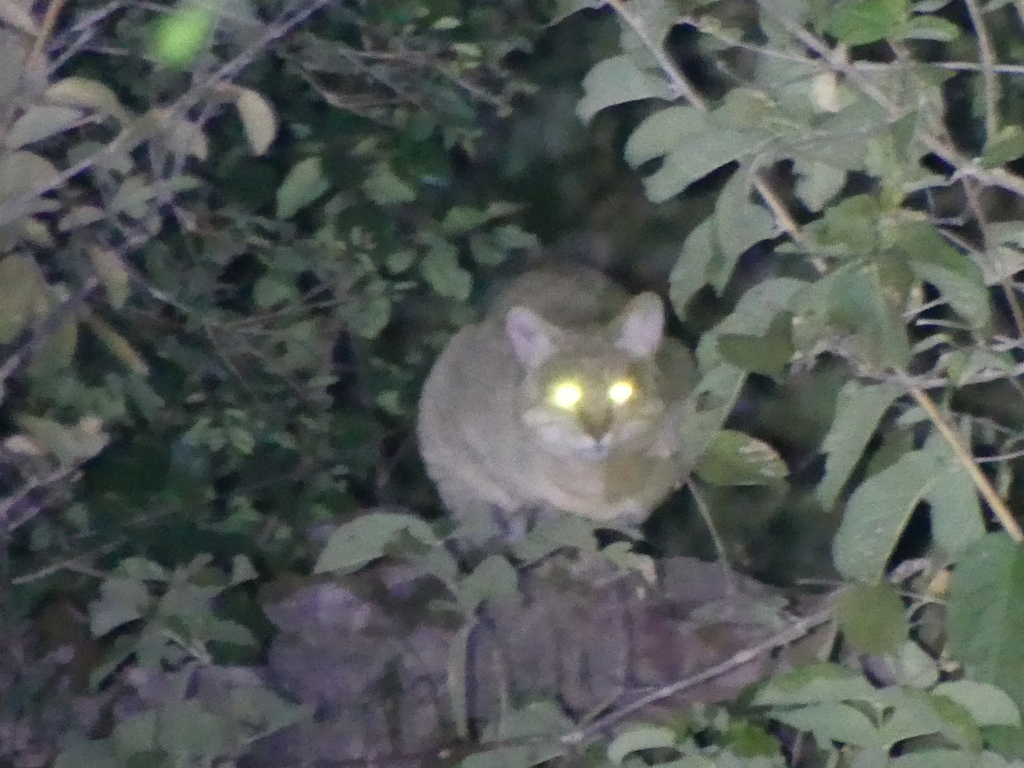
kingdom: Animalia
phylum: Chordata
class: Mammalia
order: Carnivora
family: Felidae
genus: Felis
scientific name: Felis silvestris
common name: Wildcat
